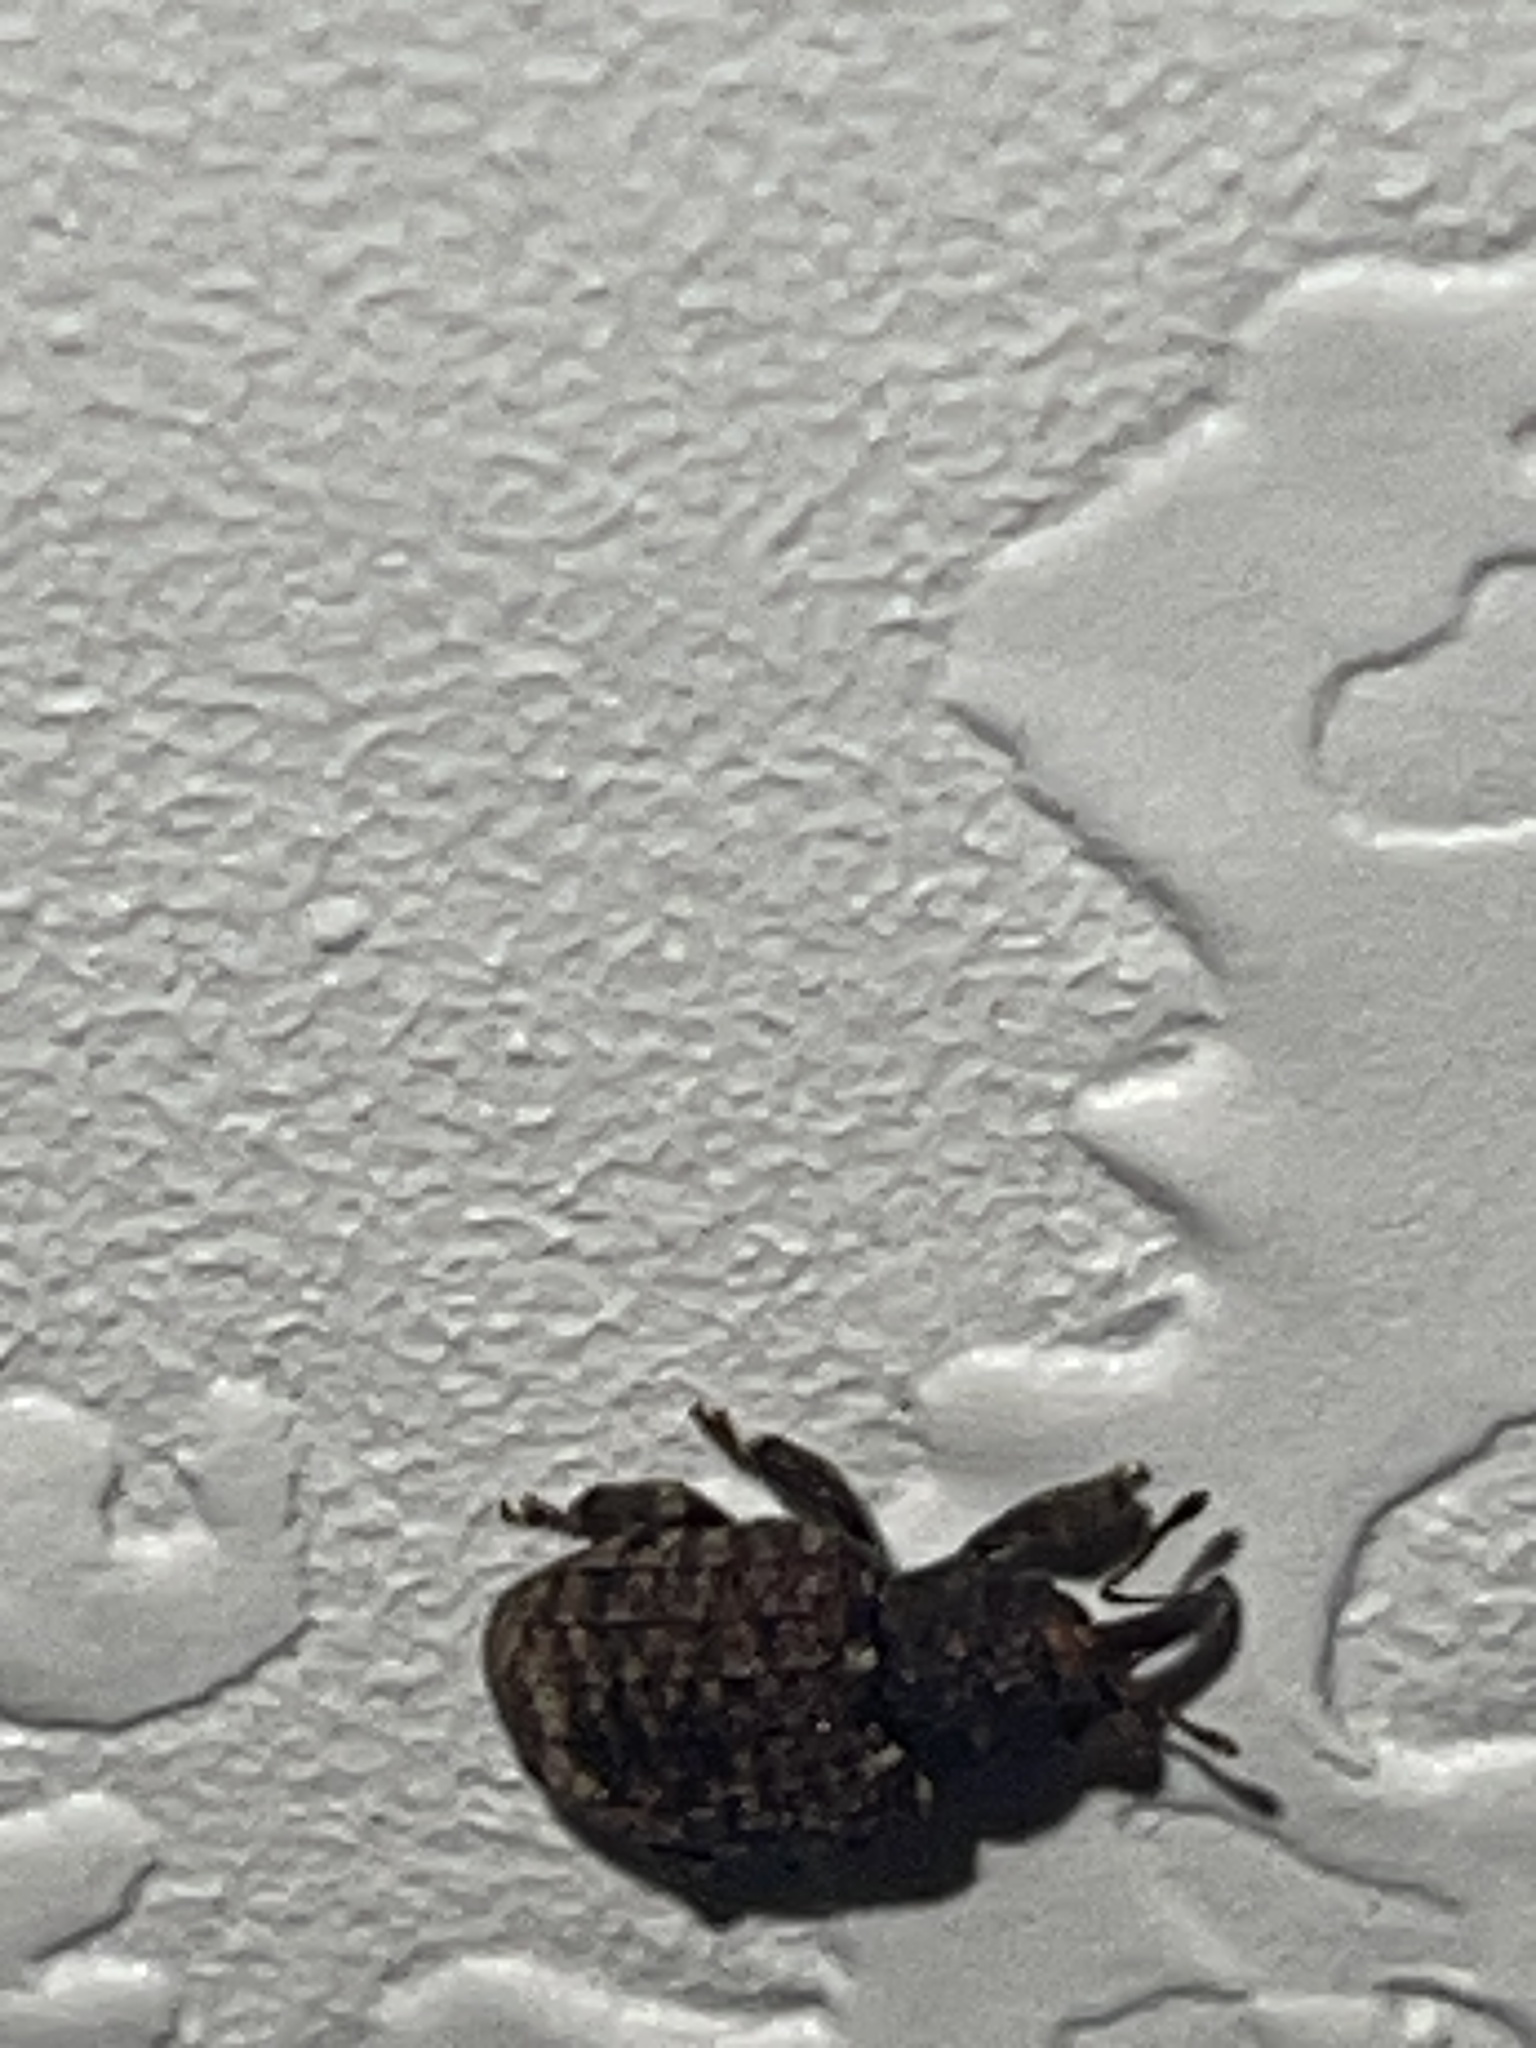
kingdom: Animalia
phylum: Arthropoda
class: Insecta
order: Coleoptera
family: Curculionidae
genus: Conotrachelus
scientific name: Conotrachelus posticatus
